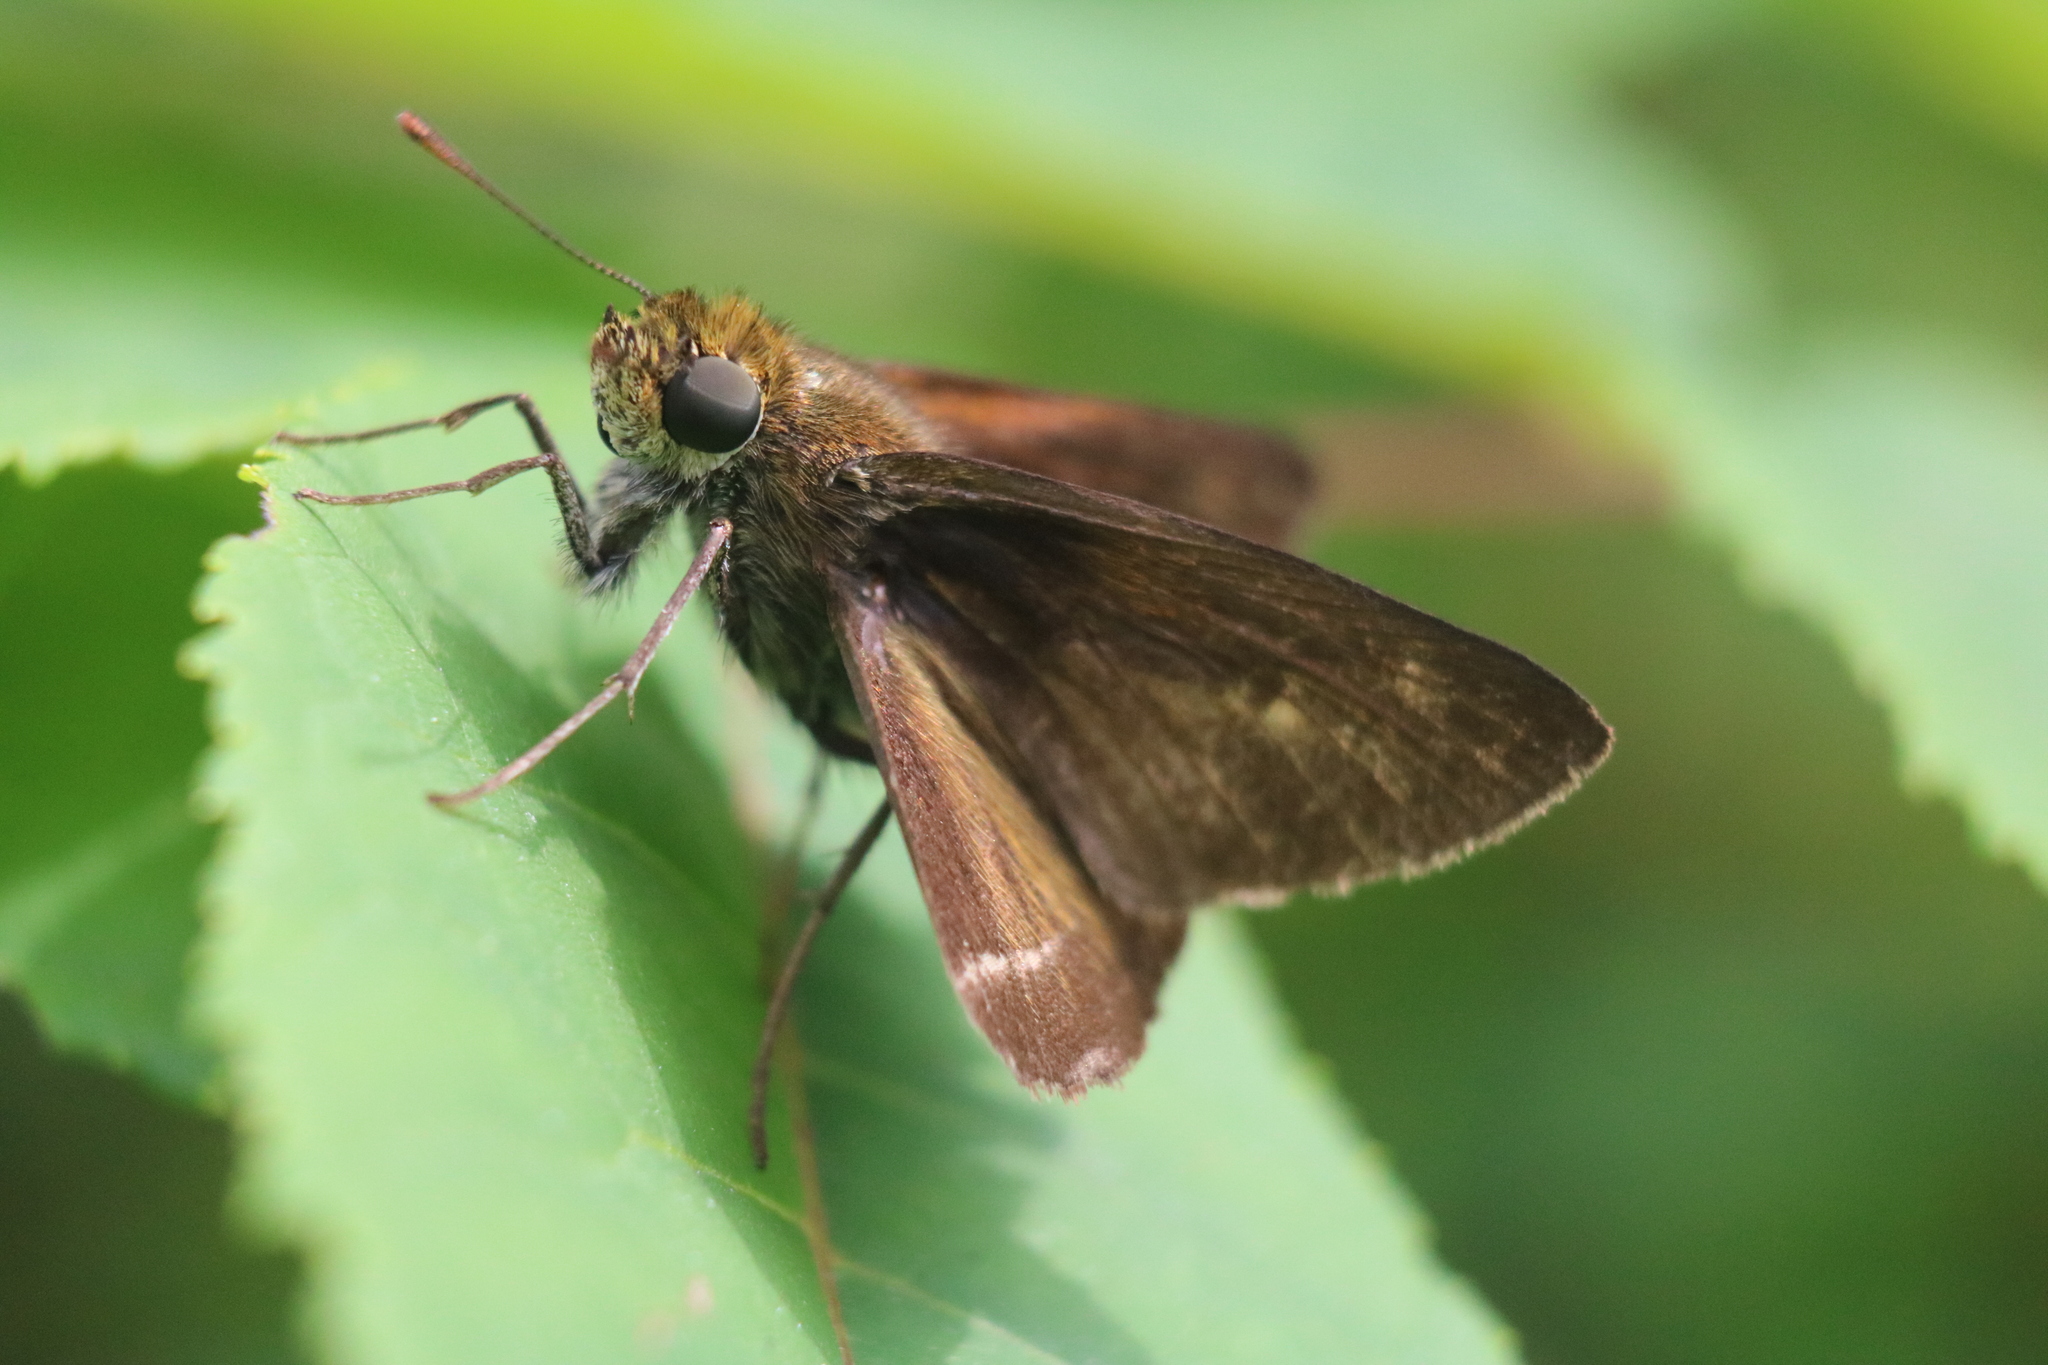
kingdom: Animalia
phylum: Arthropoda
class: Insecta
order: Lepidoptera
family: Hesperiidae
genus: Euphyes
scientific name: Euphyes vestris
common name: Dun skipper
